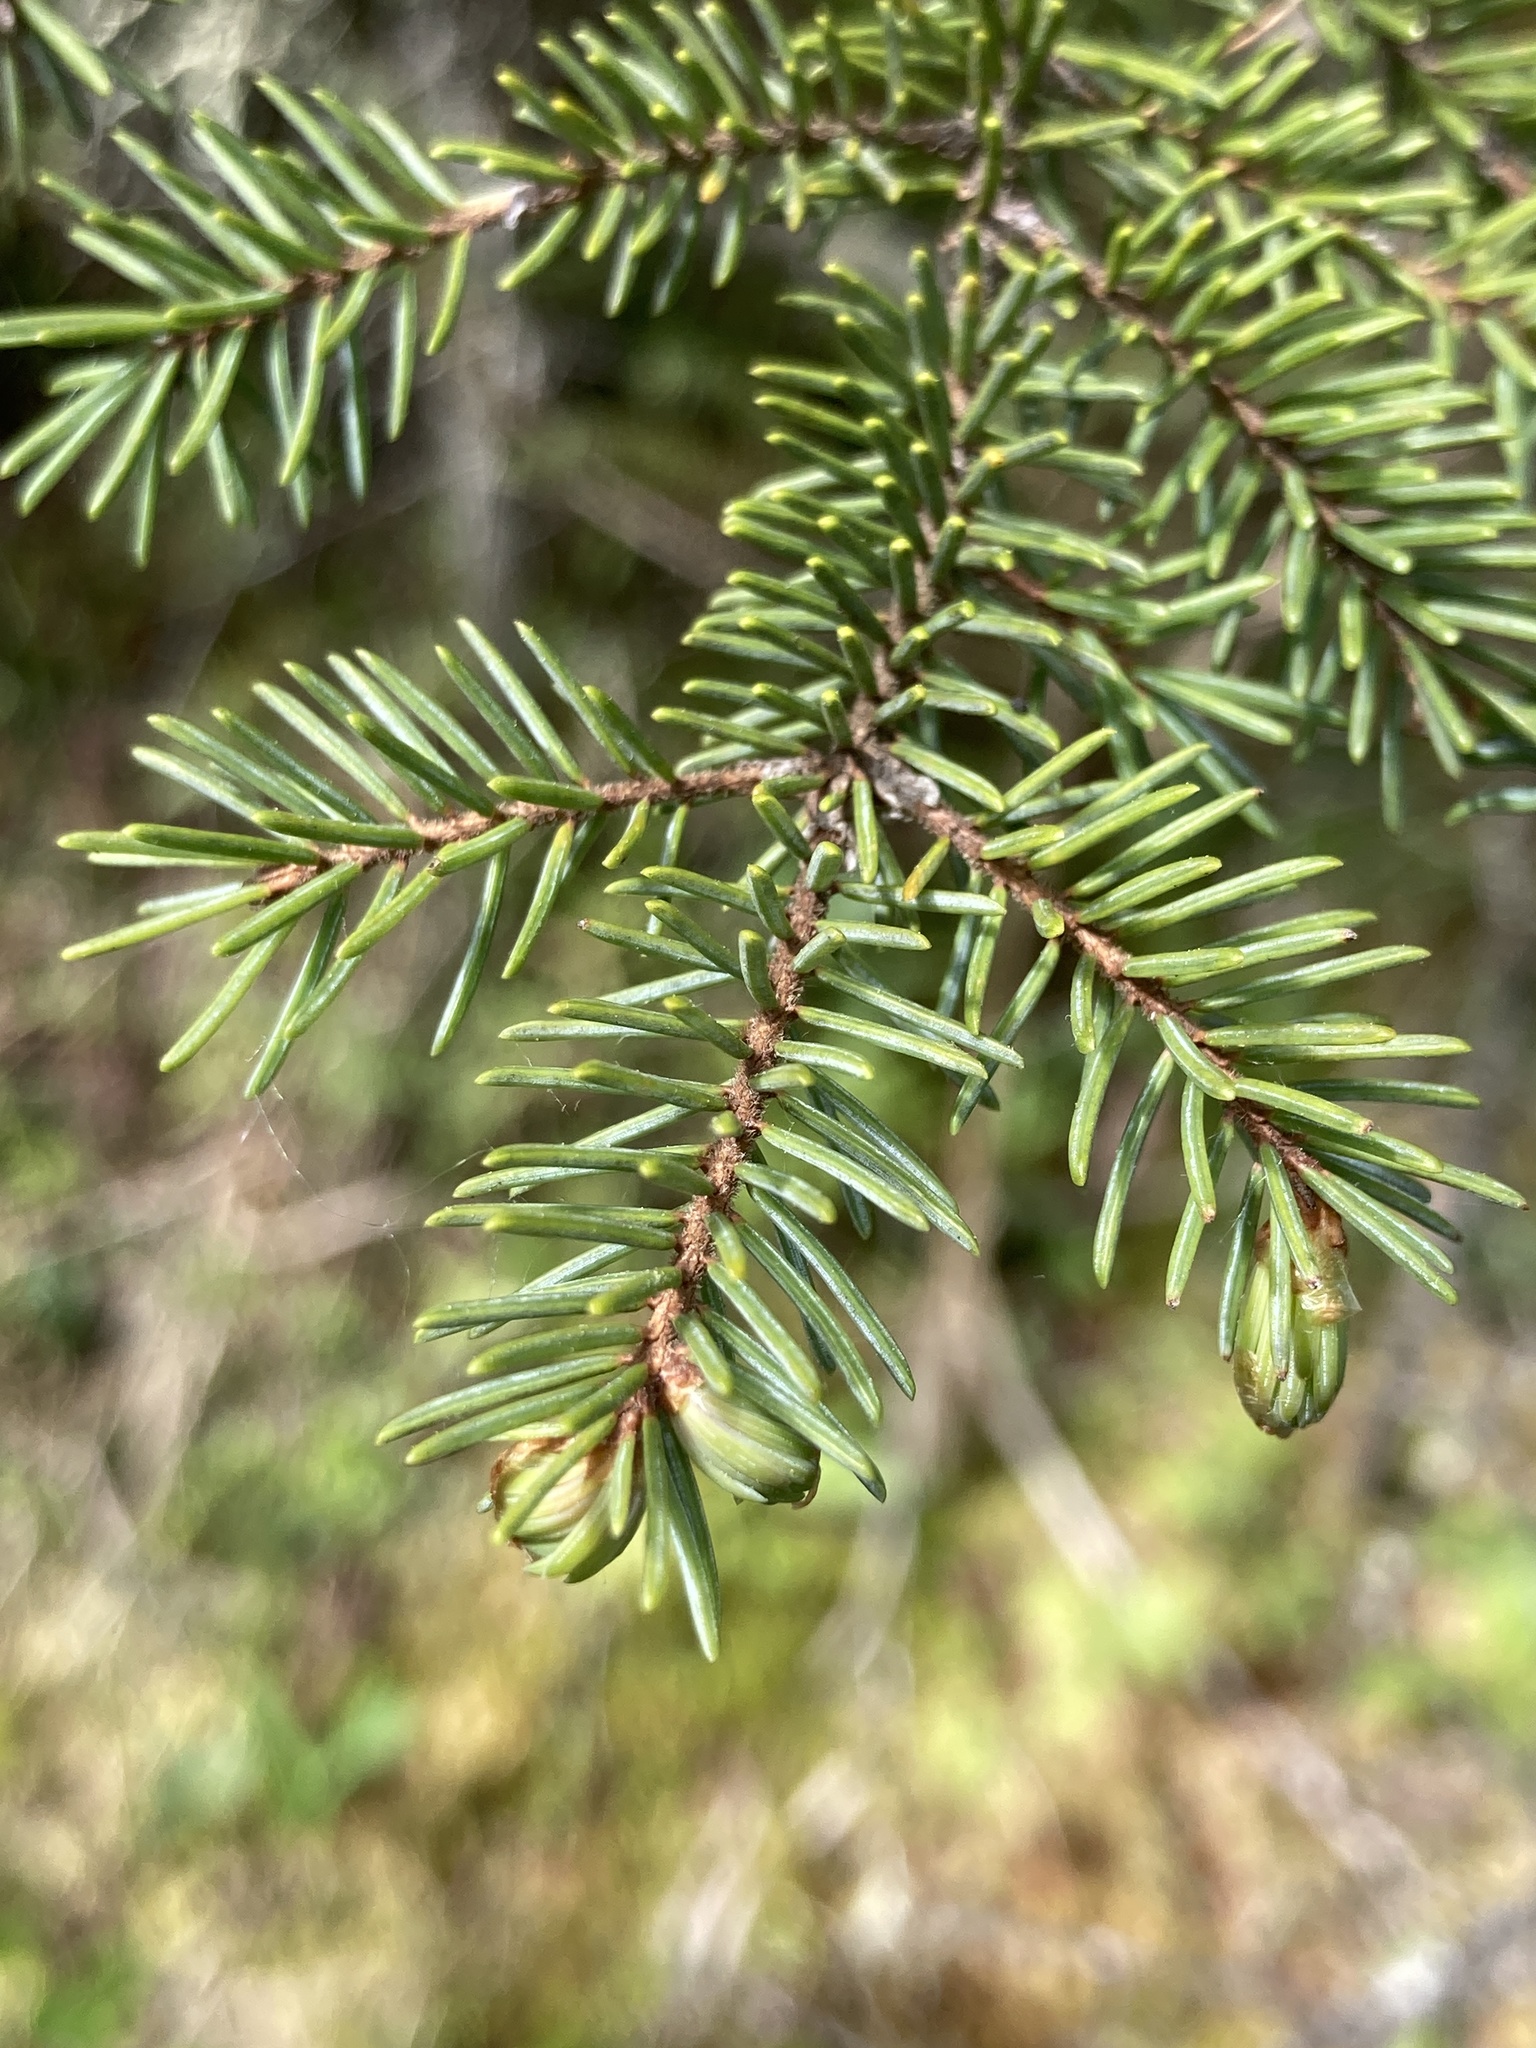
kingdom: Plantae
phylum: Tracheophyta
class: Pinopsida
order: Pinales
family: Pinaceae
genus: Picea
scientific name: Picea mariana
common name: Black spruce
